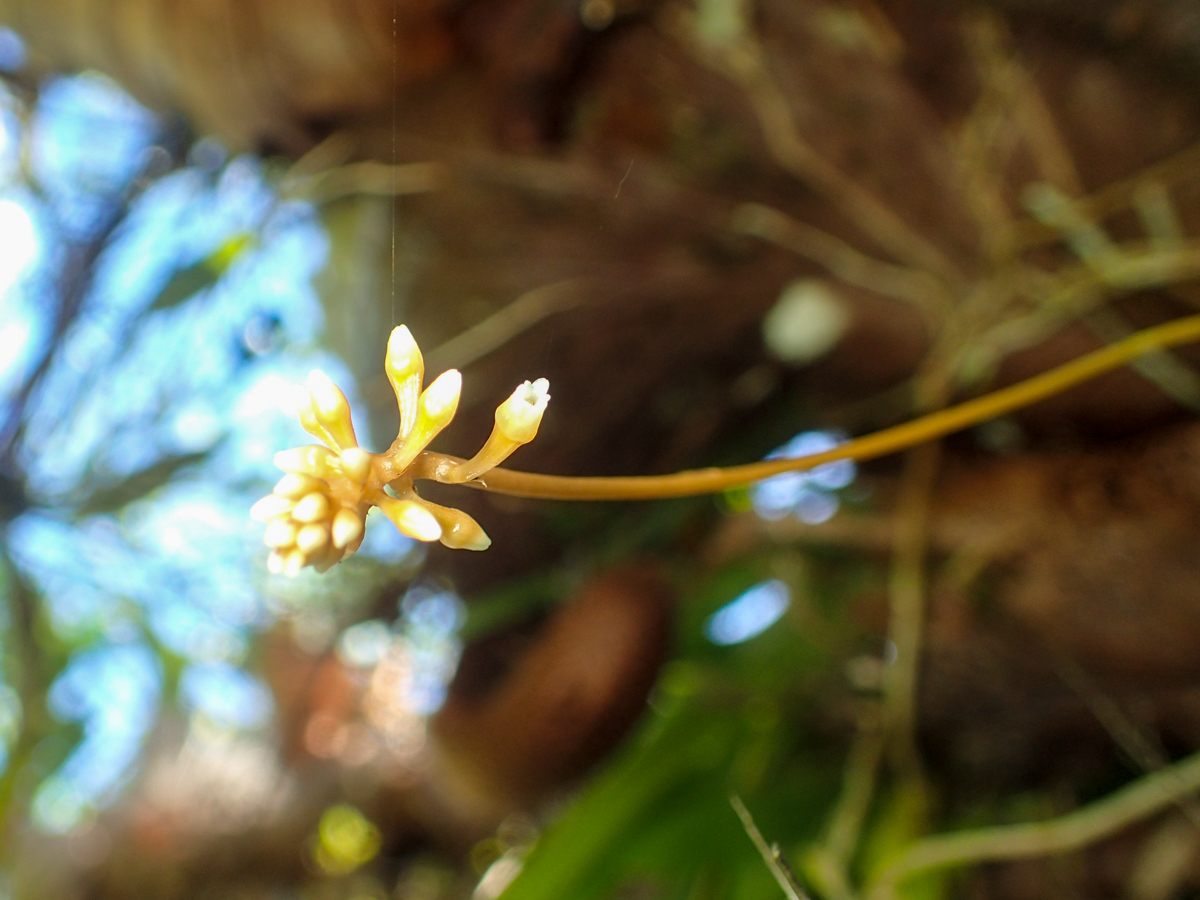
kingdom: Plantae
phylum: Tracheophyta
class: Liliopsida
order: Asparagales
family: Orchidaceae
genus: Thelasis
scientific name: Thelasis micrantha
